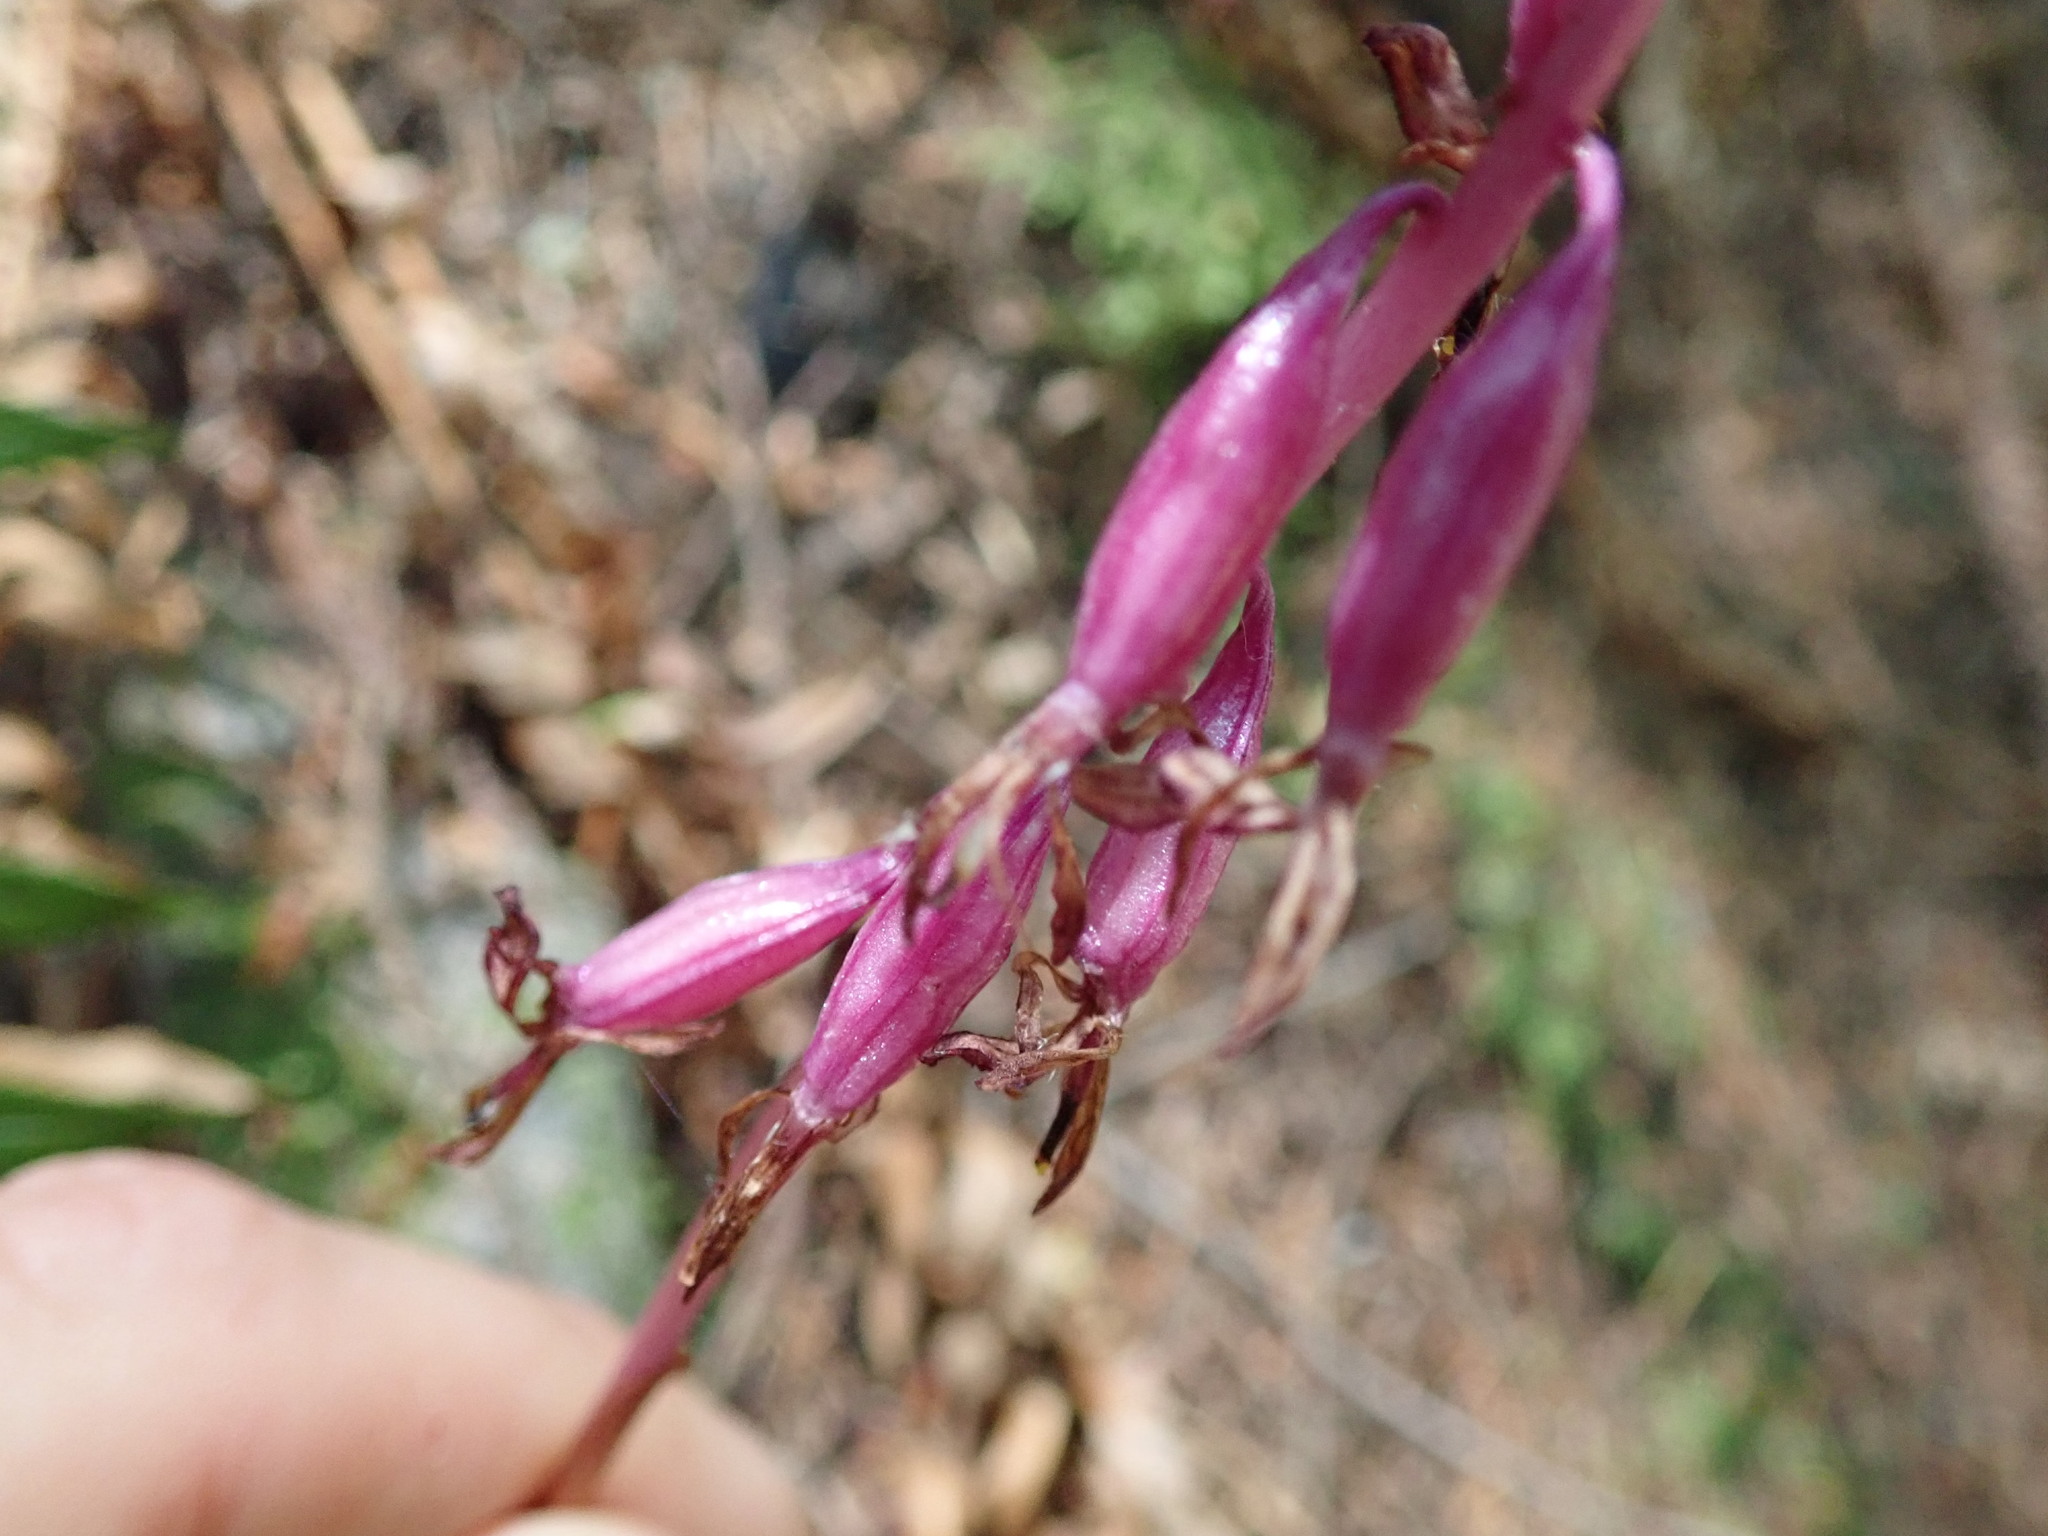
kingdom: Plantae
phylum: Tracheophyta
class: Liliopsida
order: Asparagales
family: Orchidaceae
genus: Corallorhiza
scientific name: Corallorhiza mertensiana
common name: Pacific coralroot
